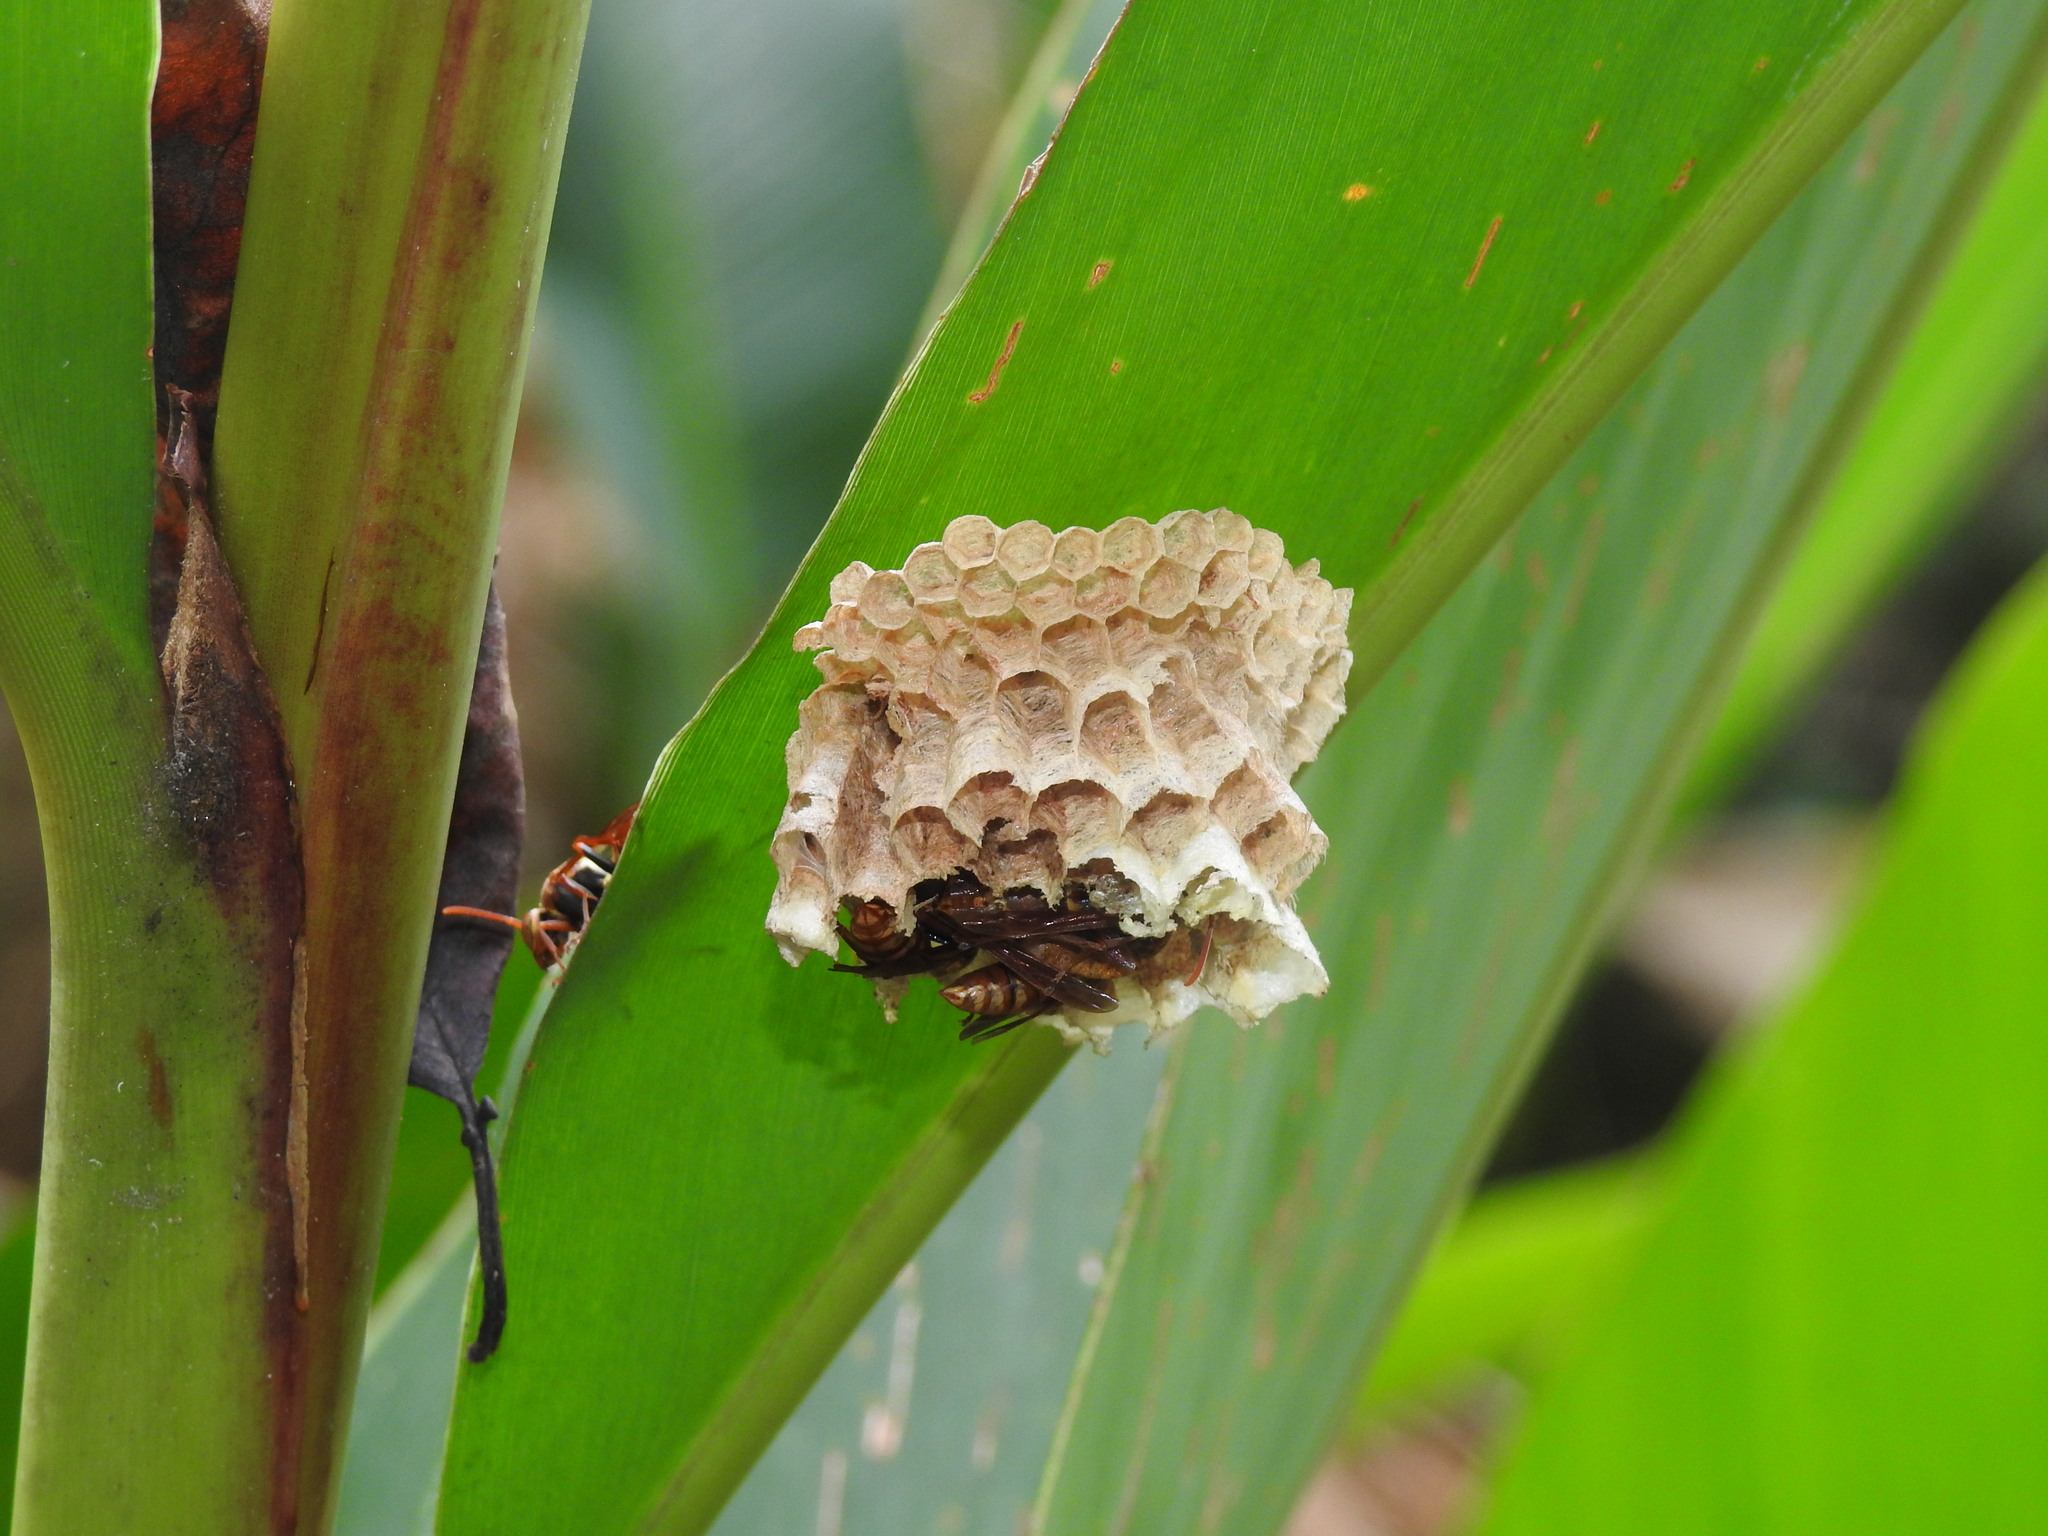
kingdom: Animalia
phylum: Arthropoda
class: Insecta
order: Hymenoptera
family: Eumenidae
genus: Polistes
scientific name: Polistes takasagonus
